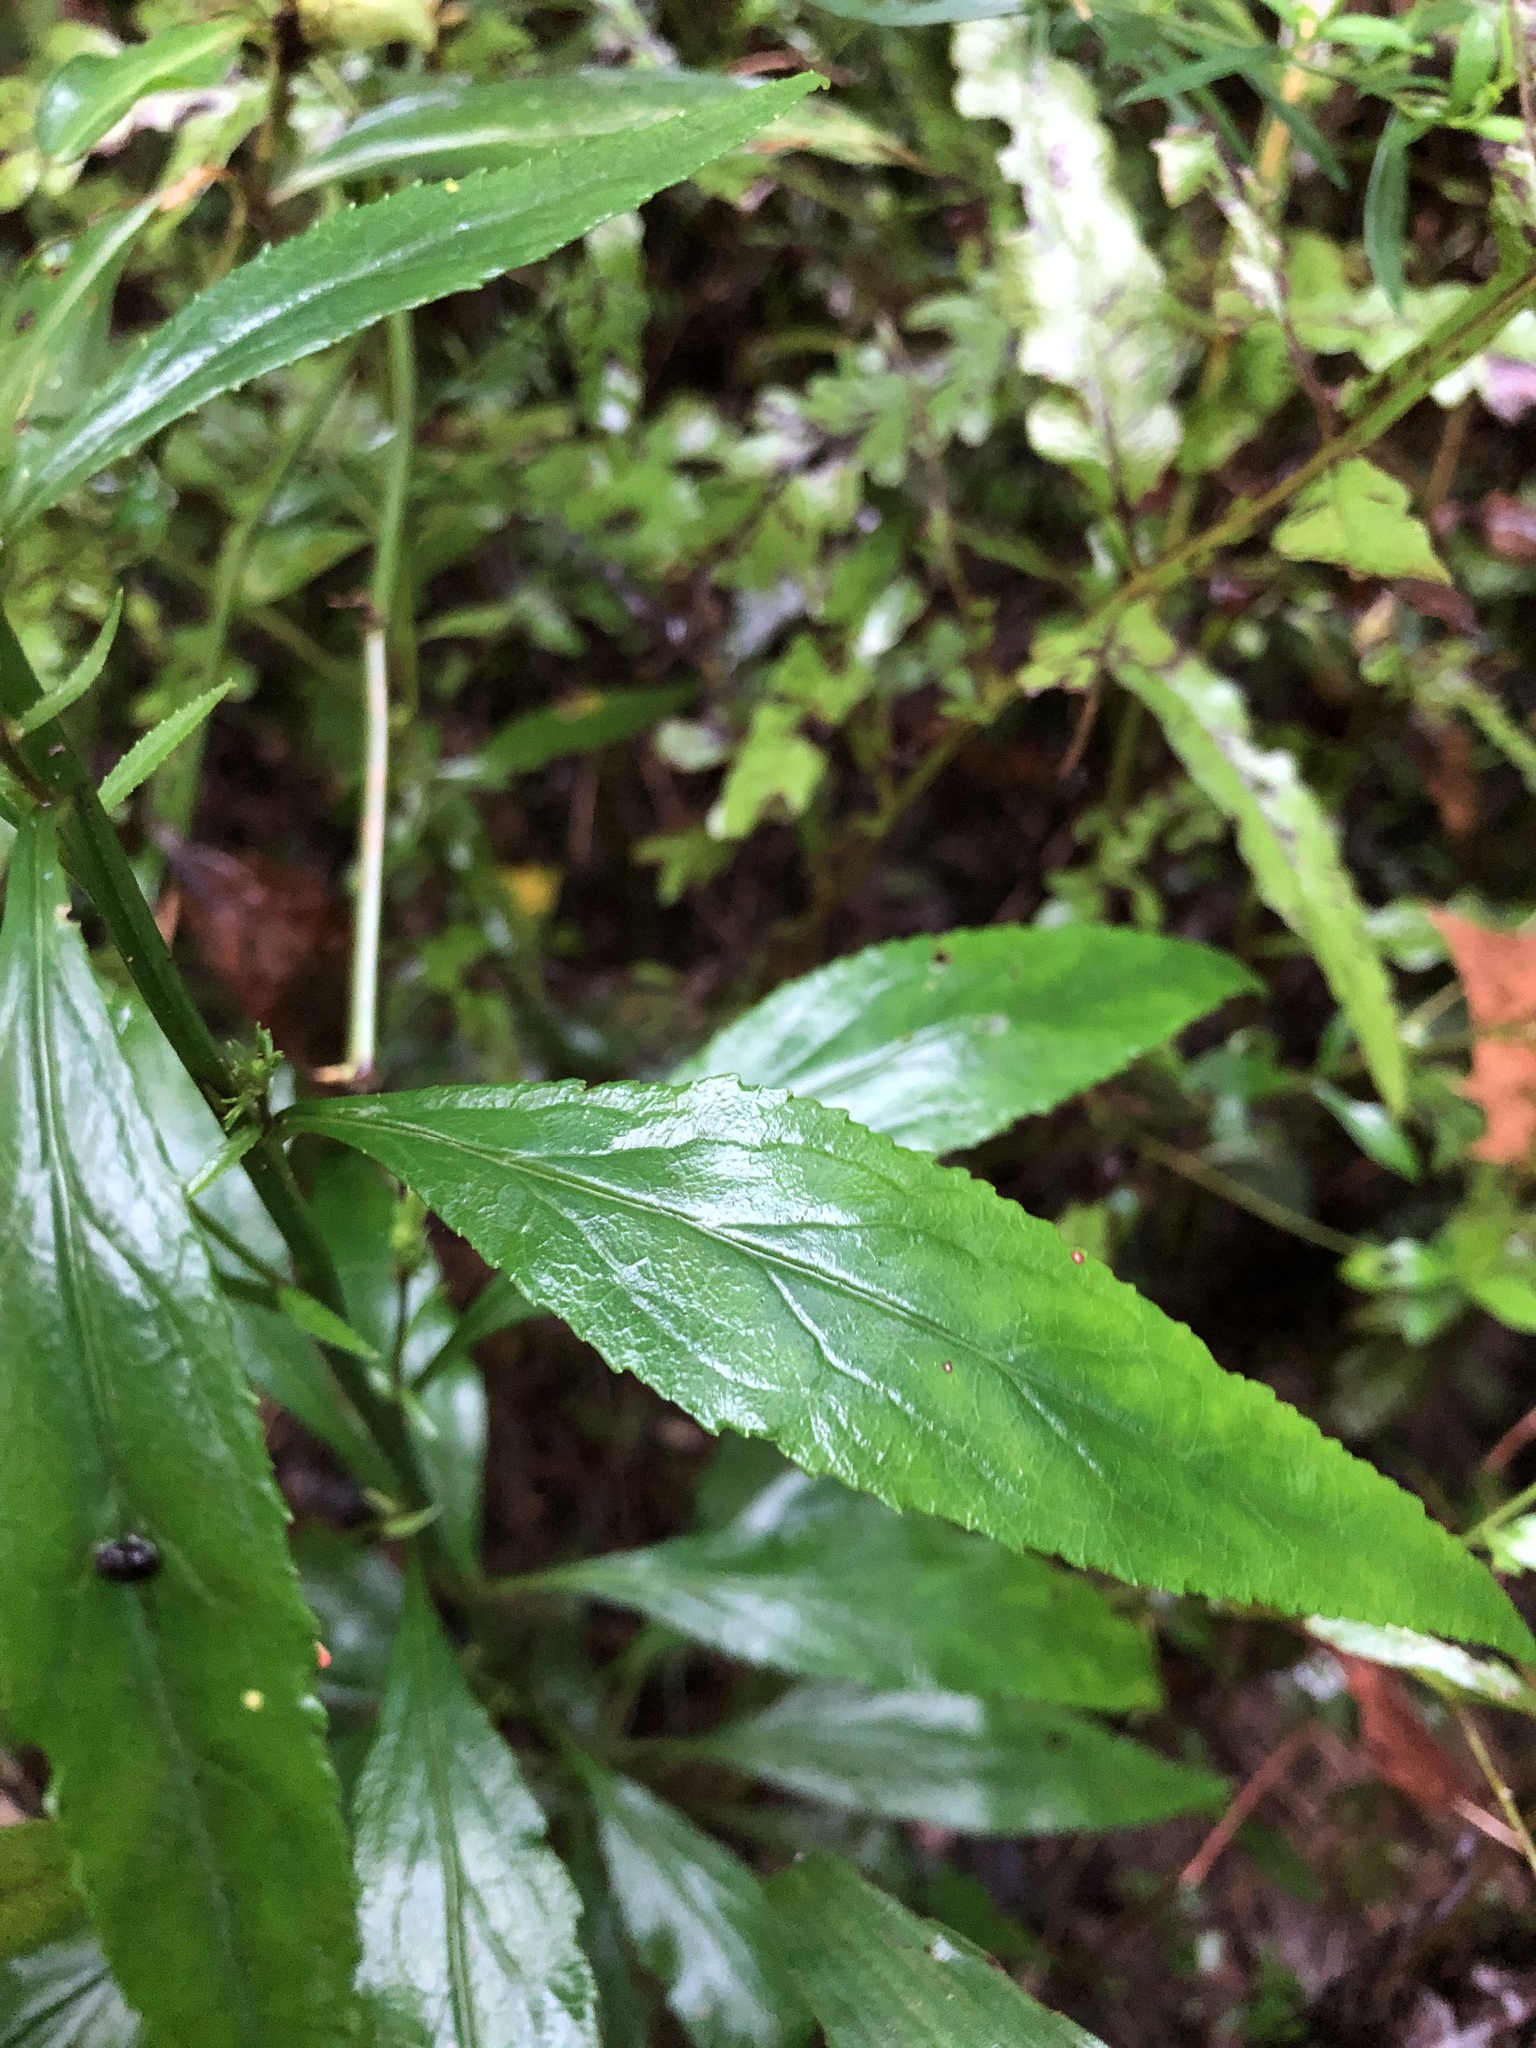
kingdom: Plantae
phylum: Tracheophyta
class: Magnoliopsida
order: Asterales
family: Campanulaceae
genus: Lobelia
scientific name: Lobelia cardinalis
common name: Cardinal flower
